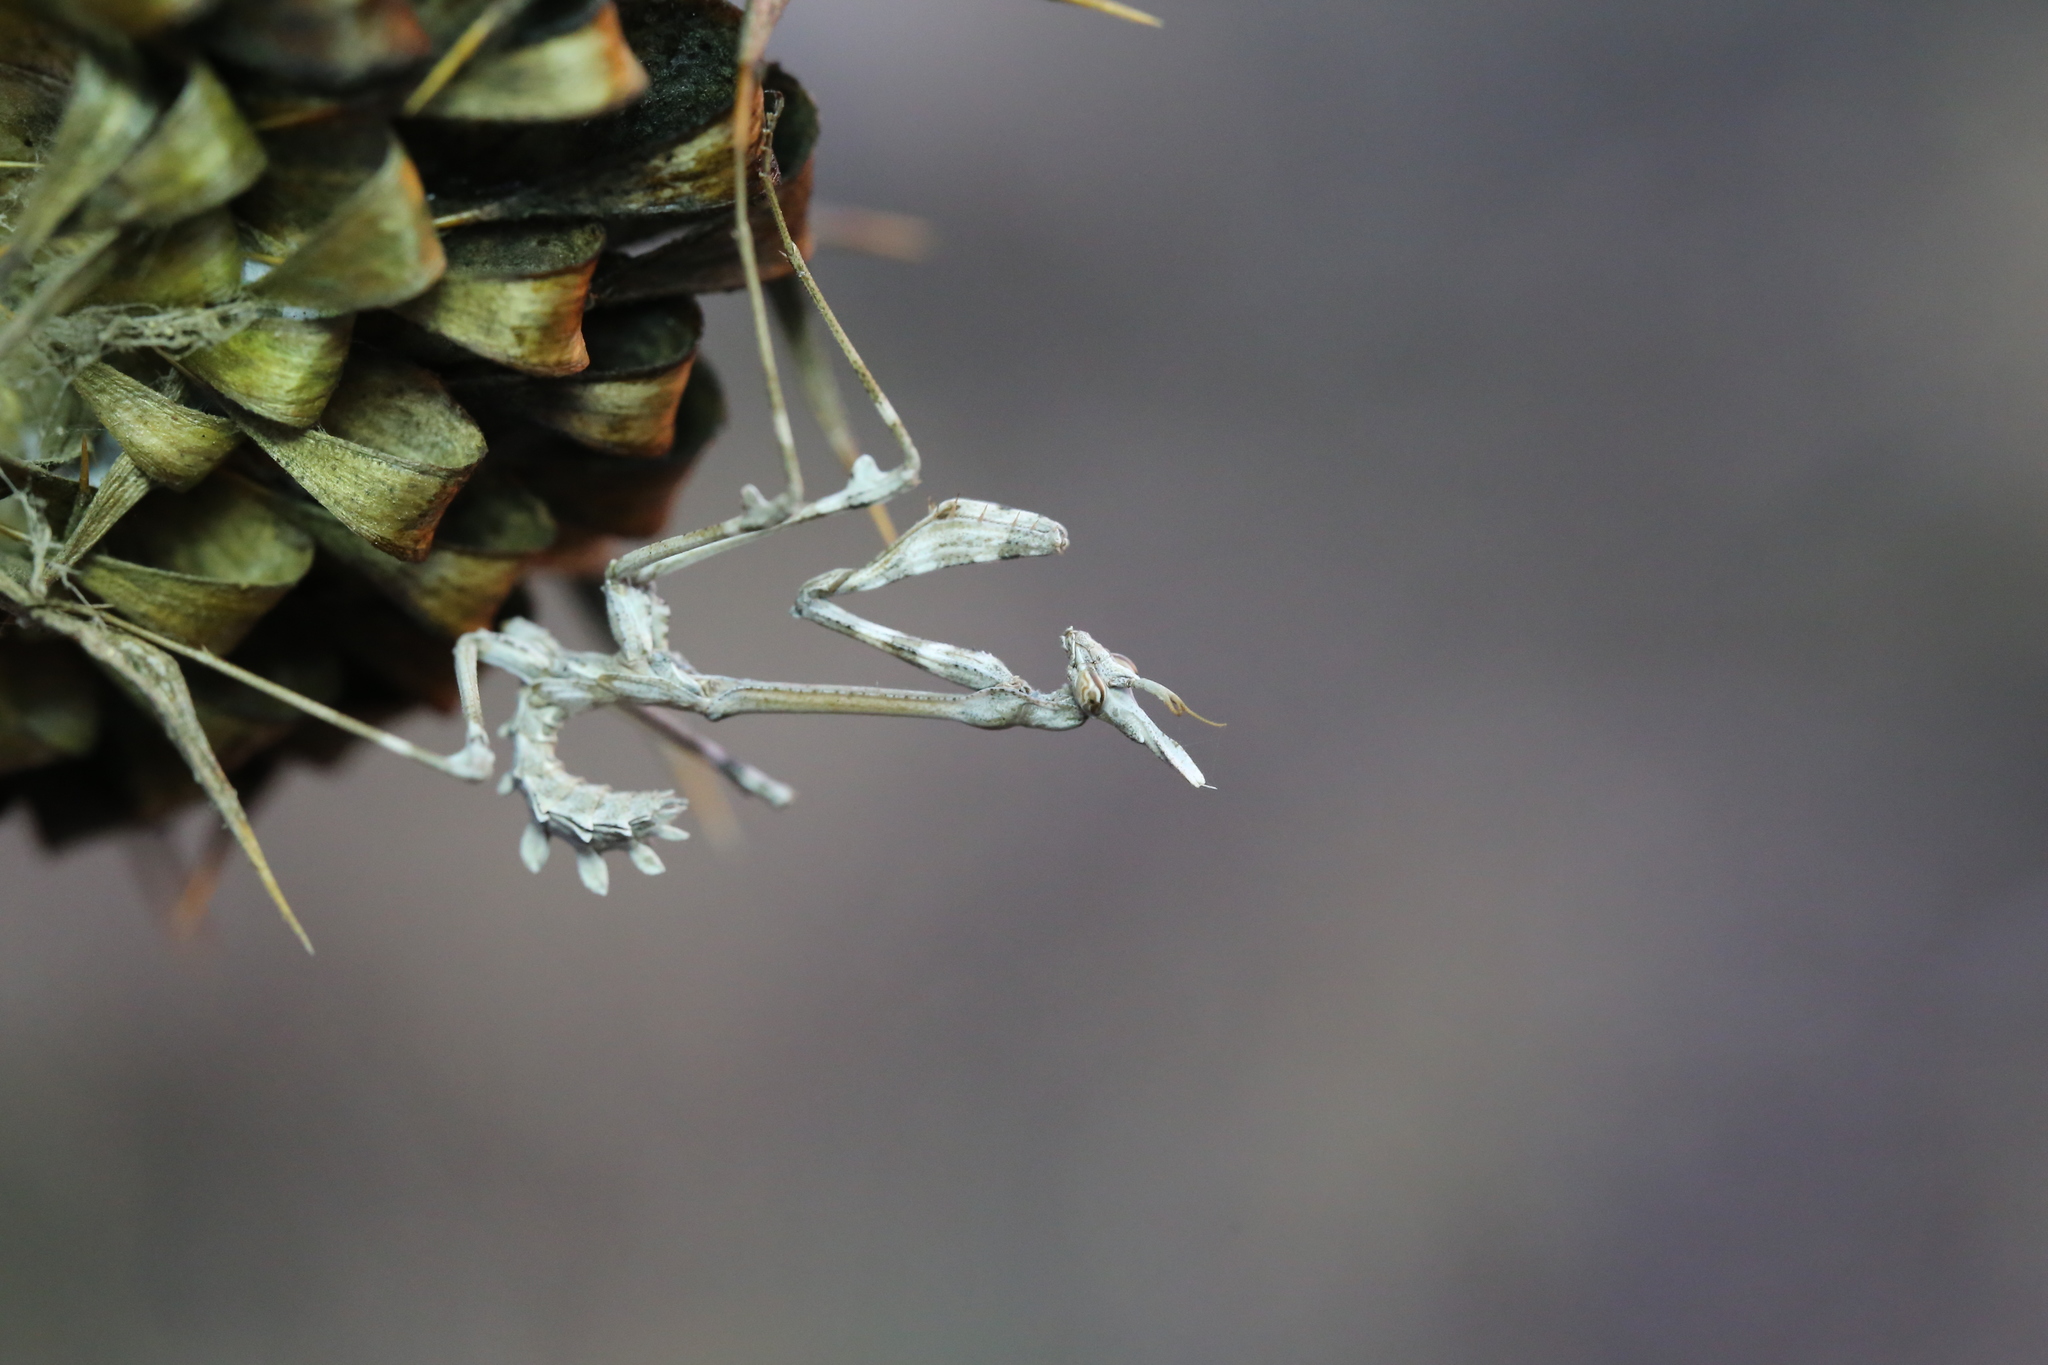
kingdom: Animalia
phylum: Arthropoda
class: Insecta
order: Mantodea
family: Empusidae
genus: Empusa
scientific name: Empusa fasciata
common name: Devil's mare
